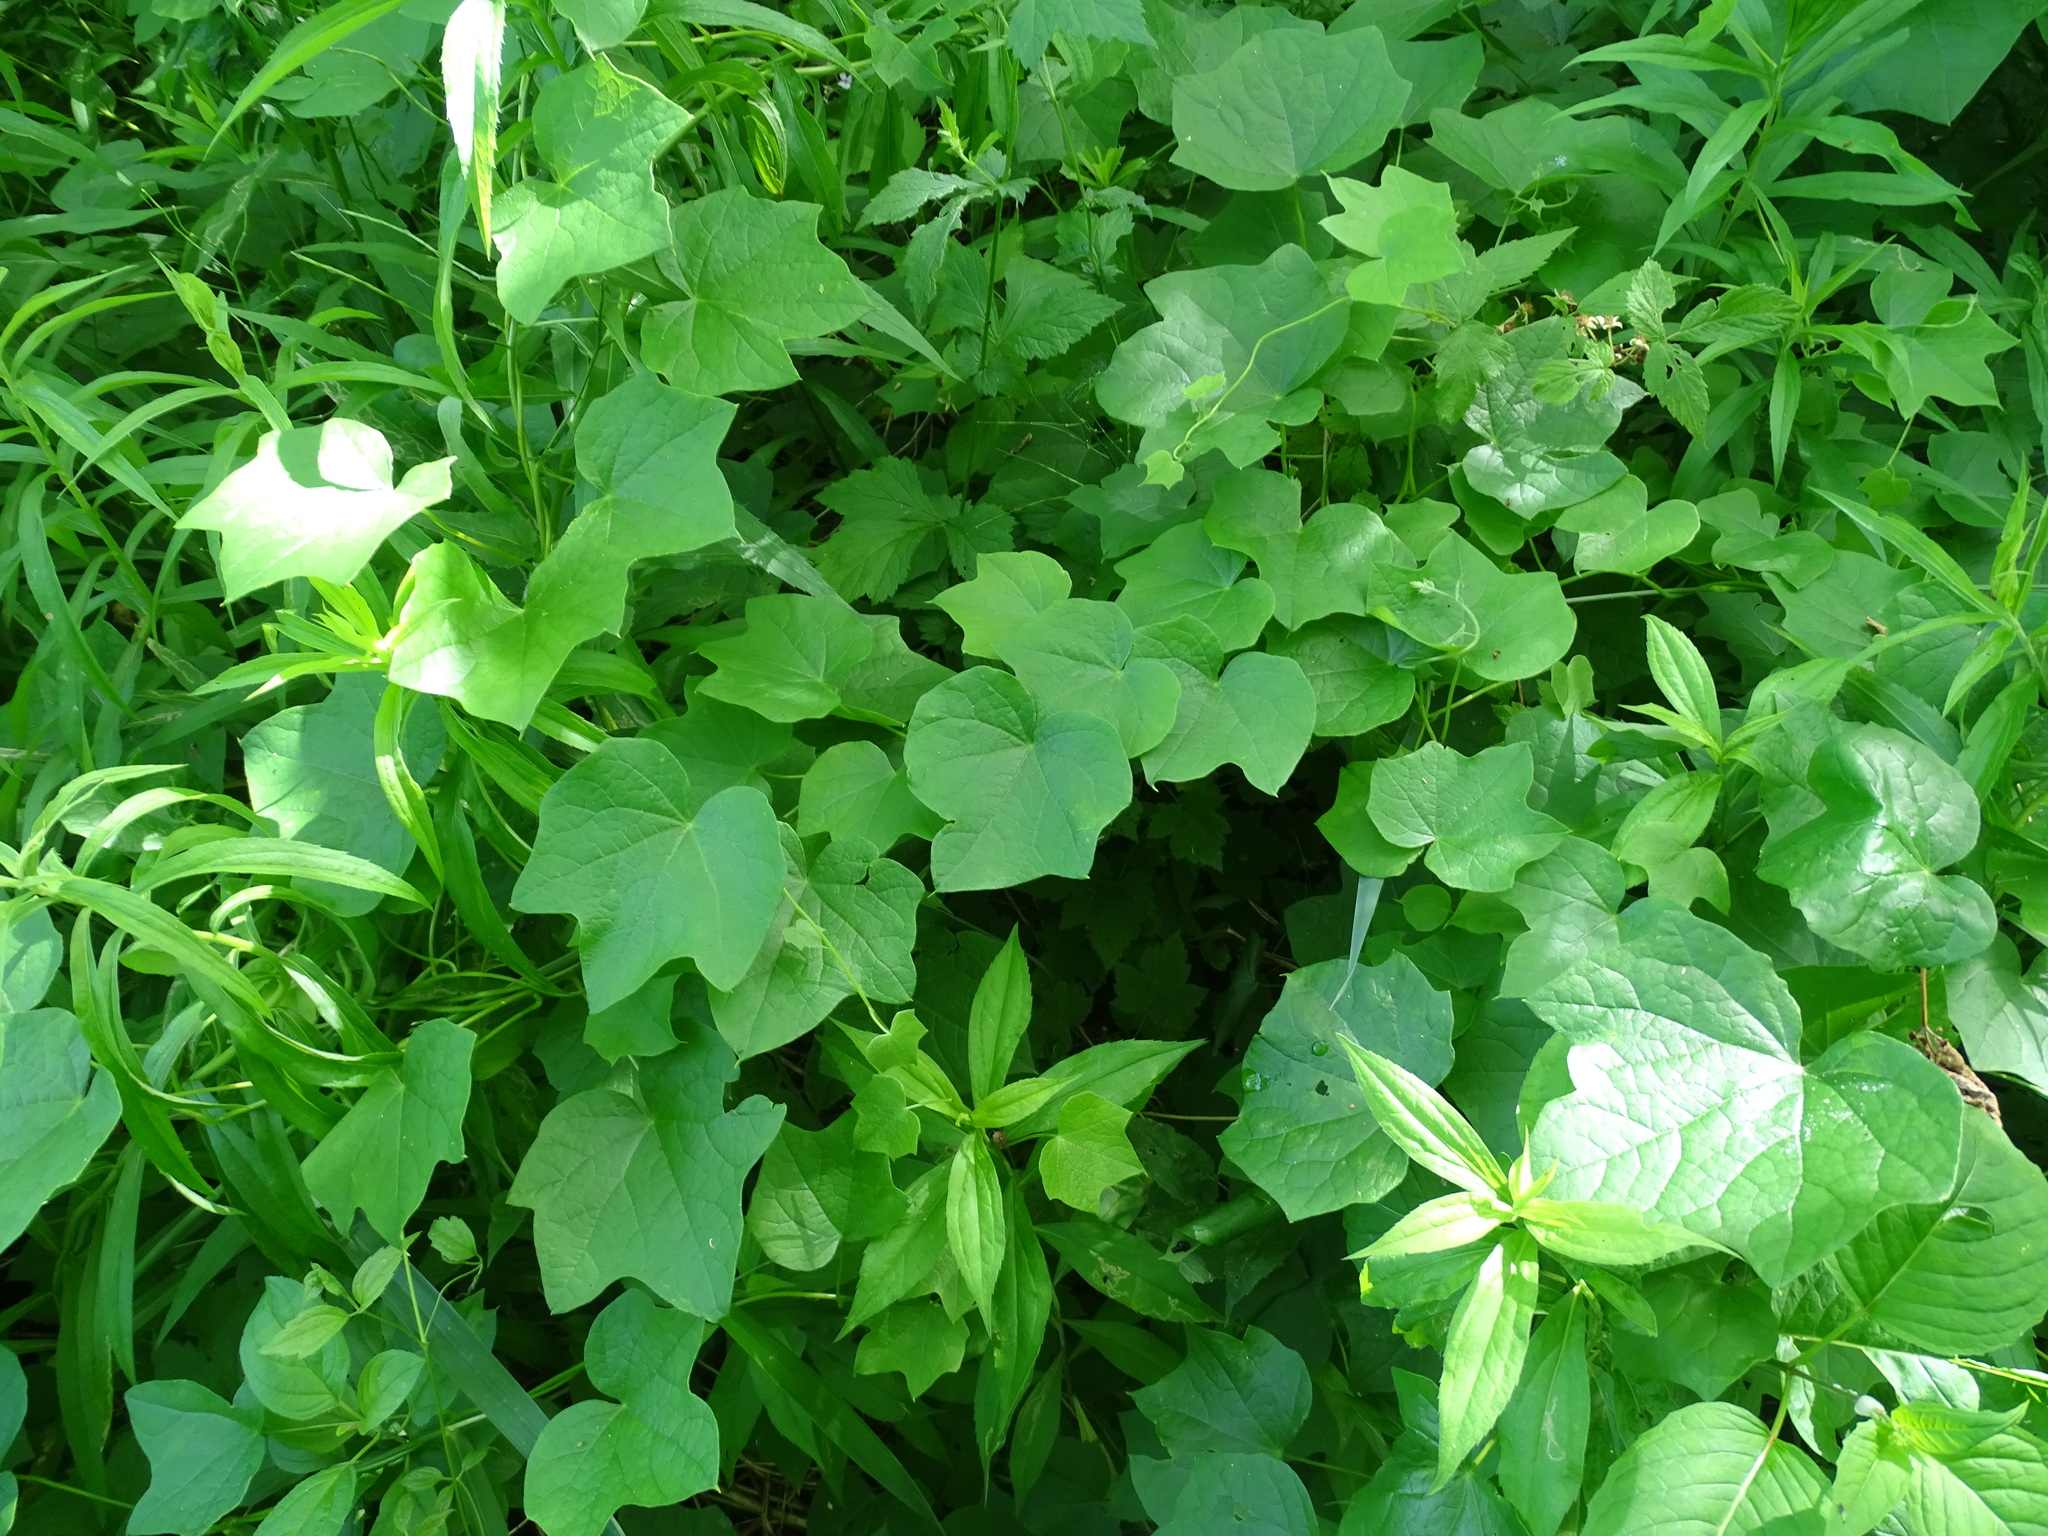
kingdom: Plantae
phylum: Tracheophyta
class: Magnoliopsida
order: Ranunculales
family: Menispermaceae
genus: Menispermum
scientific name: Menispermum canadense
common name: Moonseed
